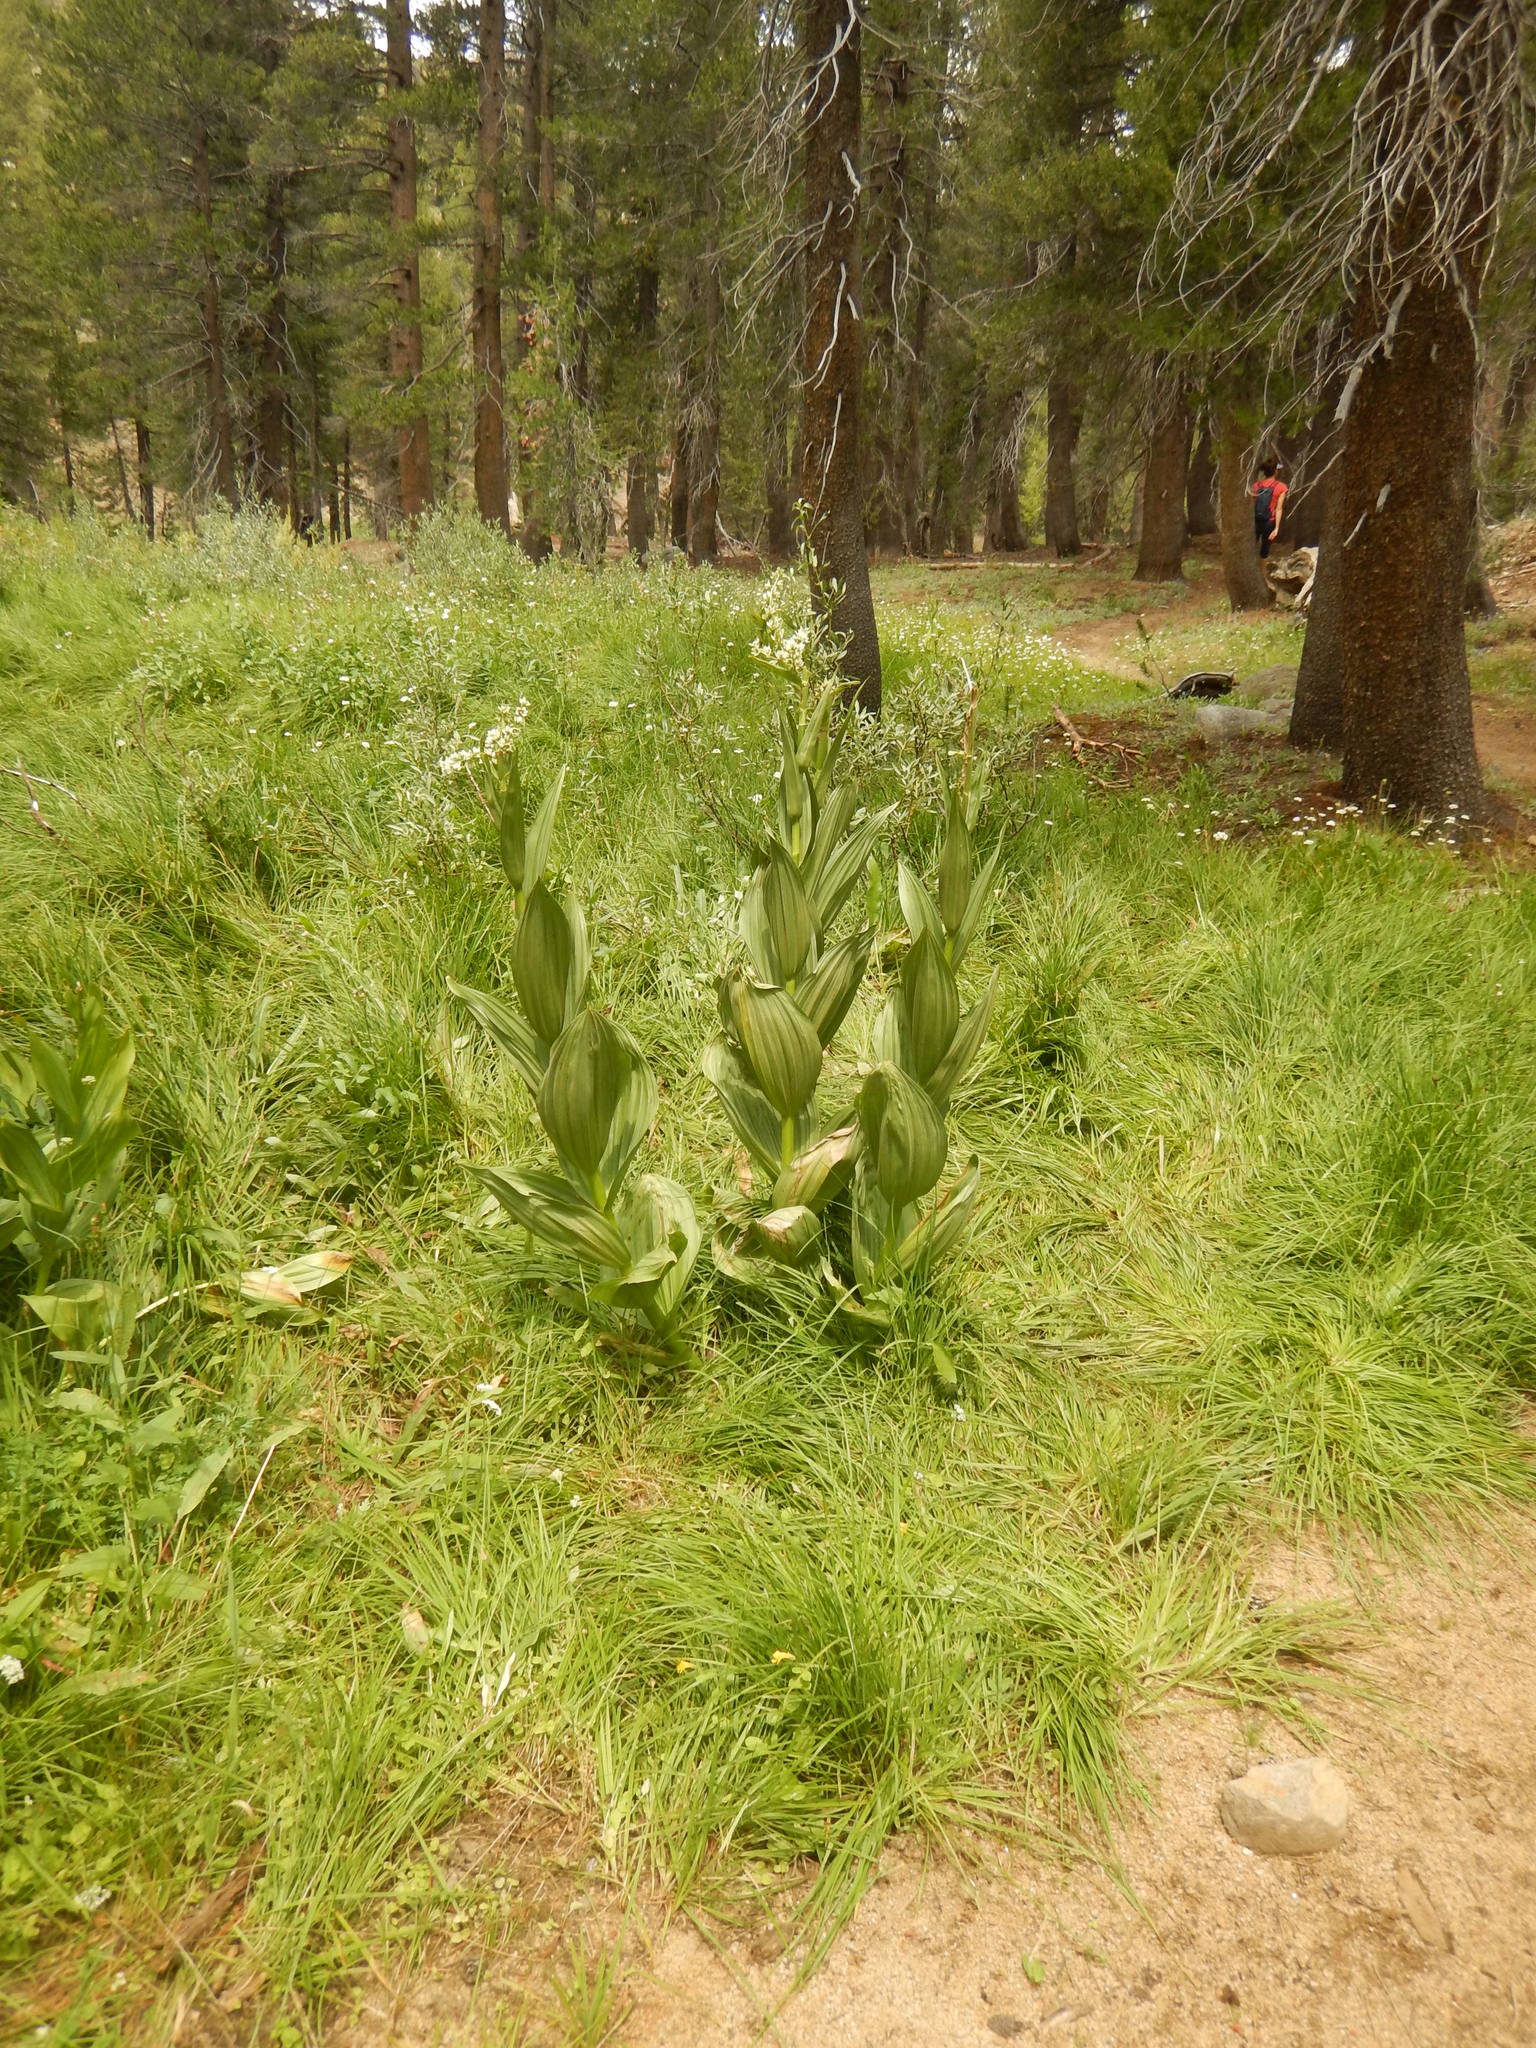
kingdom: Plantae
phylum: Tracheophyta
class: Liliopsida
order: Liliales
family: Melanthiaceae
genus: Veratrum
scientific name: Veratrum californicum
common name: California veratrum
